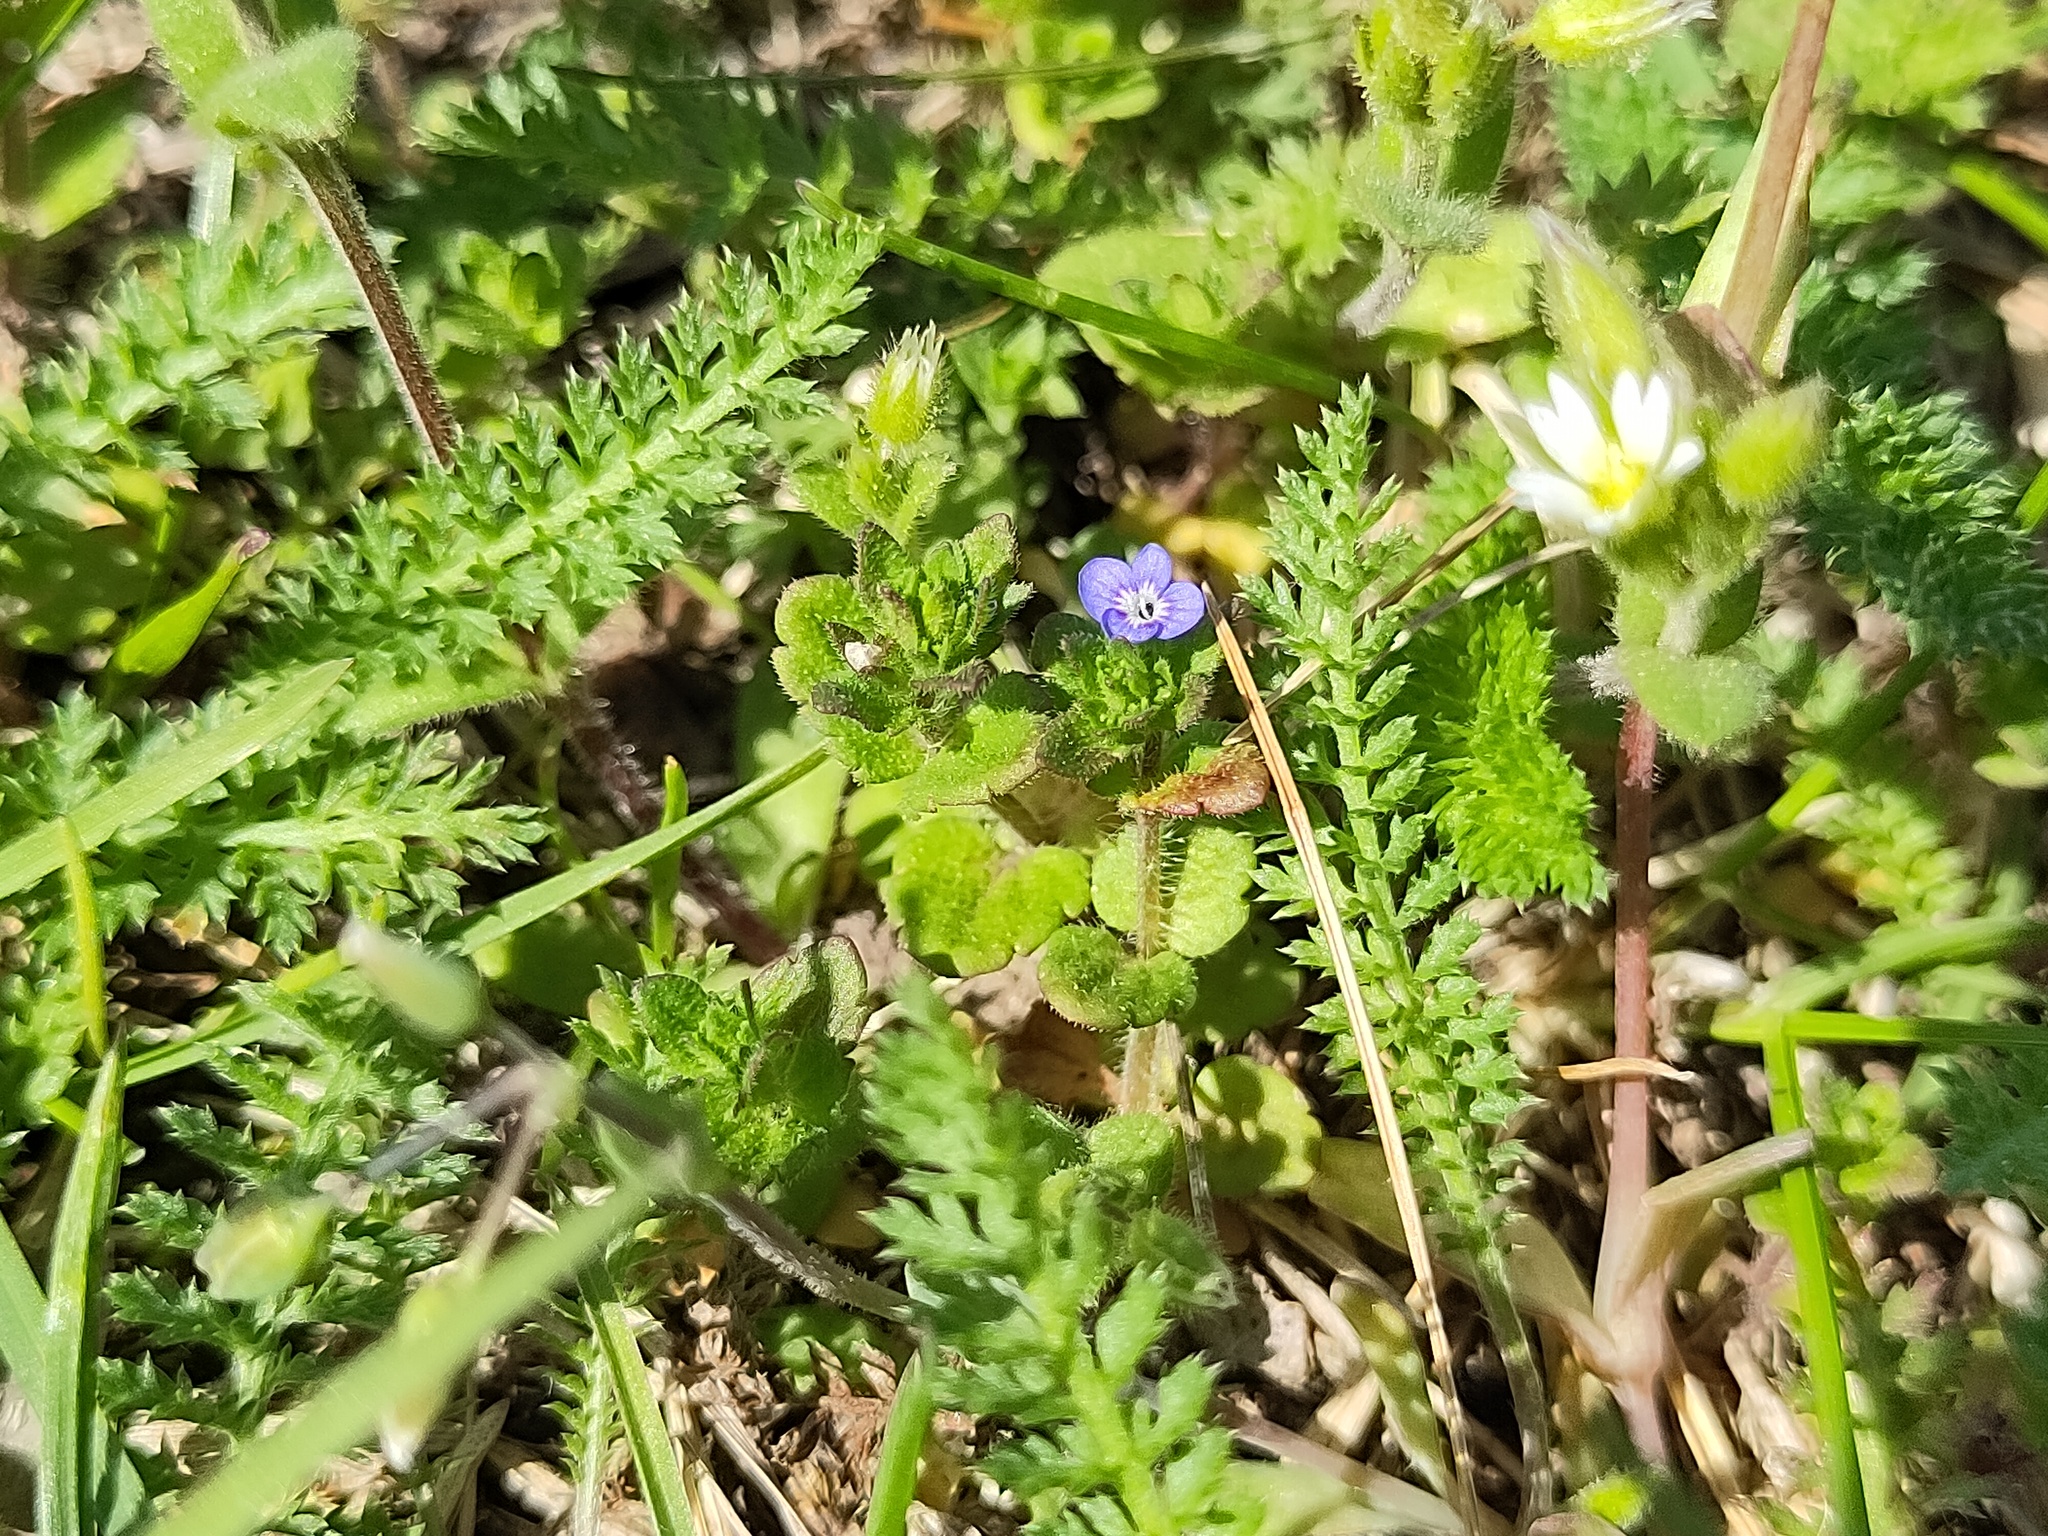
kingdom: Plantae
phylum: Tracheophyta
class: Magnoliopsida
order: Lamiales
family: Plantaginaceae
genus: Veronica
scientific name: Veronica arvensis
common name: Corn speedwell
